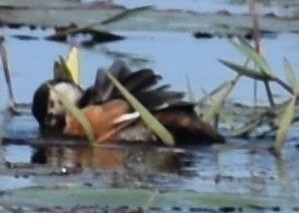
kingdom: Animalia
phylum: Chordata
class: Aves
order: Anseriformes
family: Anatidae
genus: Nettapus
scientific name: Nettapus auritus
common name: African pygmy-goose
